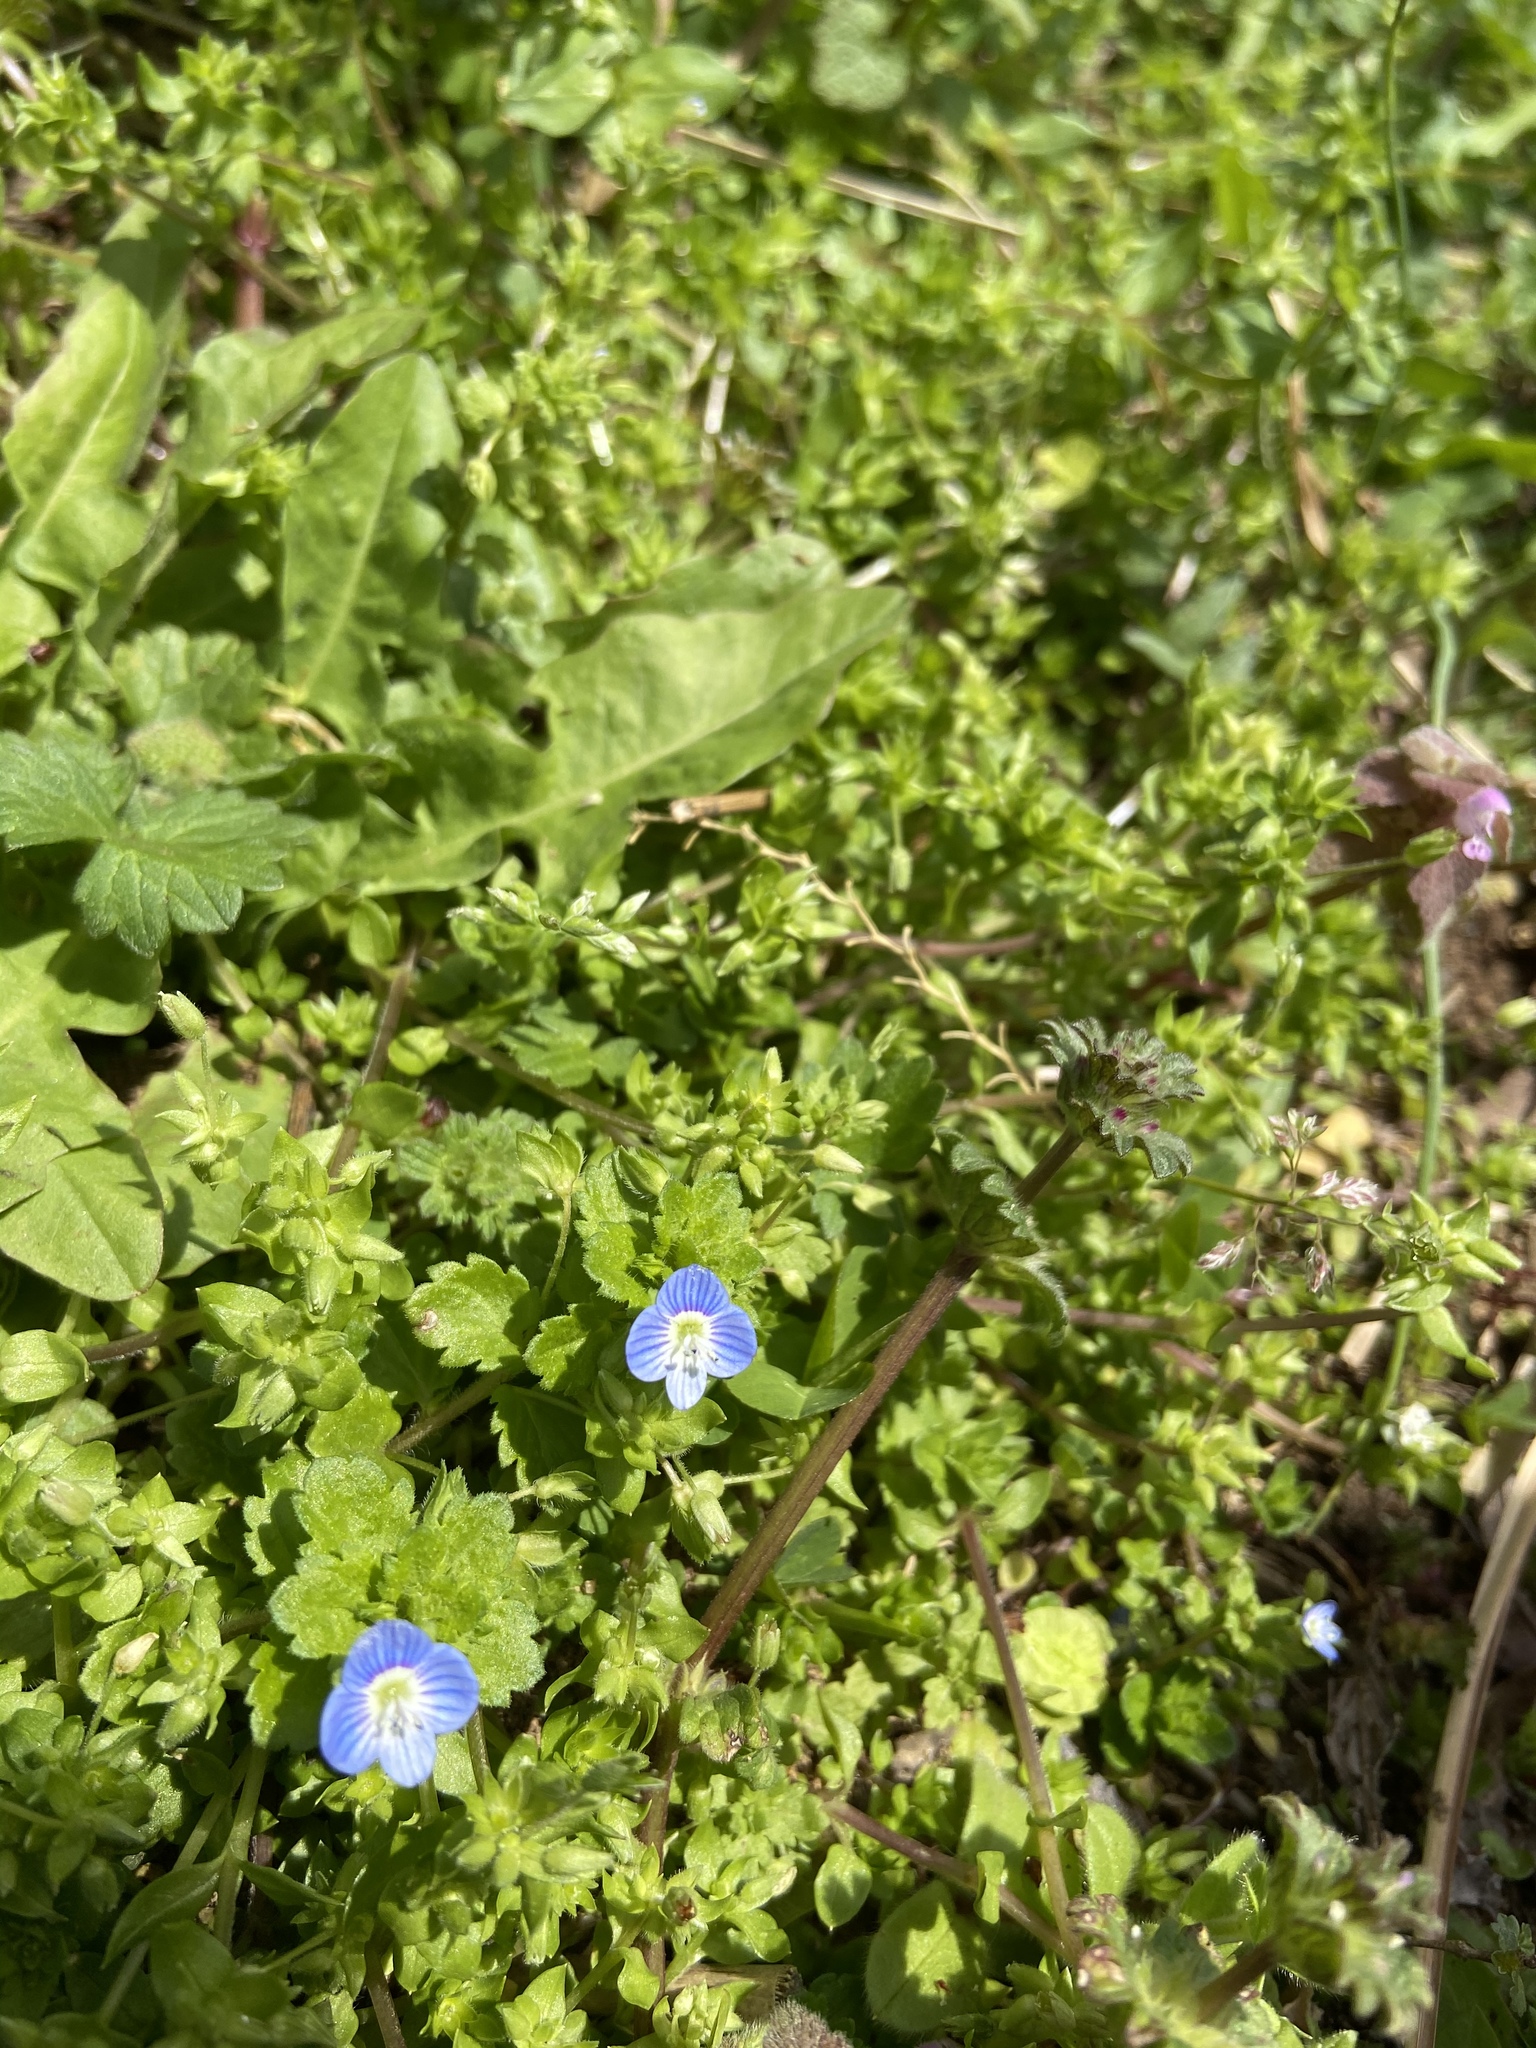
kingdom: Plantae
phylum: Tracheophyta
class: Magnoliopsida
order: Lamiales
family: Plantaginaceae
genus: Veronica
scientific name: Veronica persica
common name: Common field-speedwell
